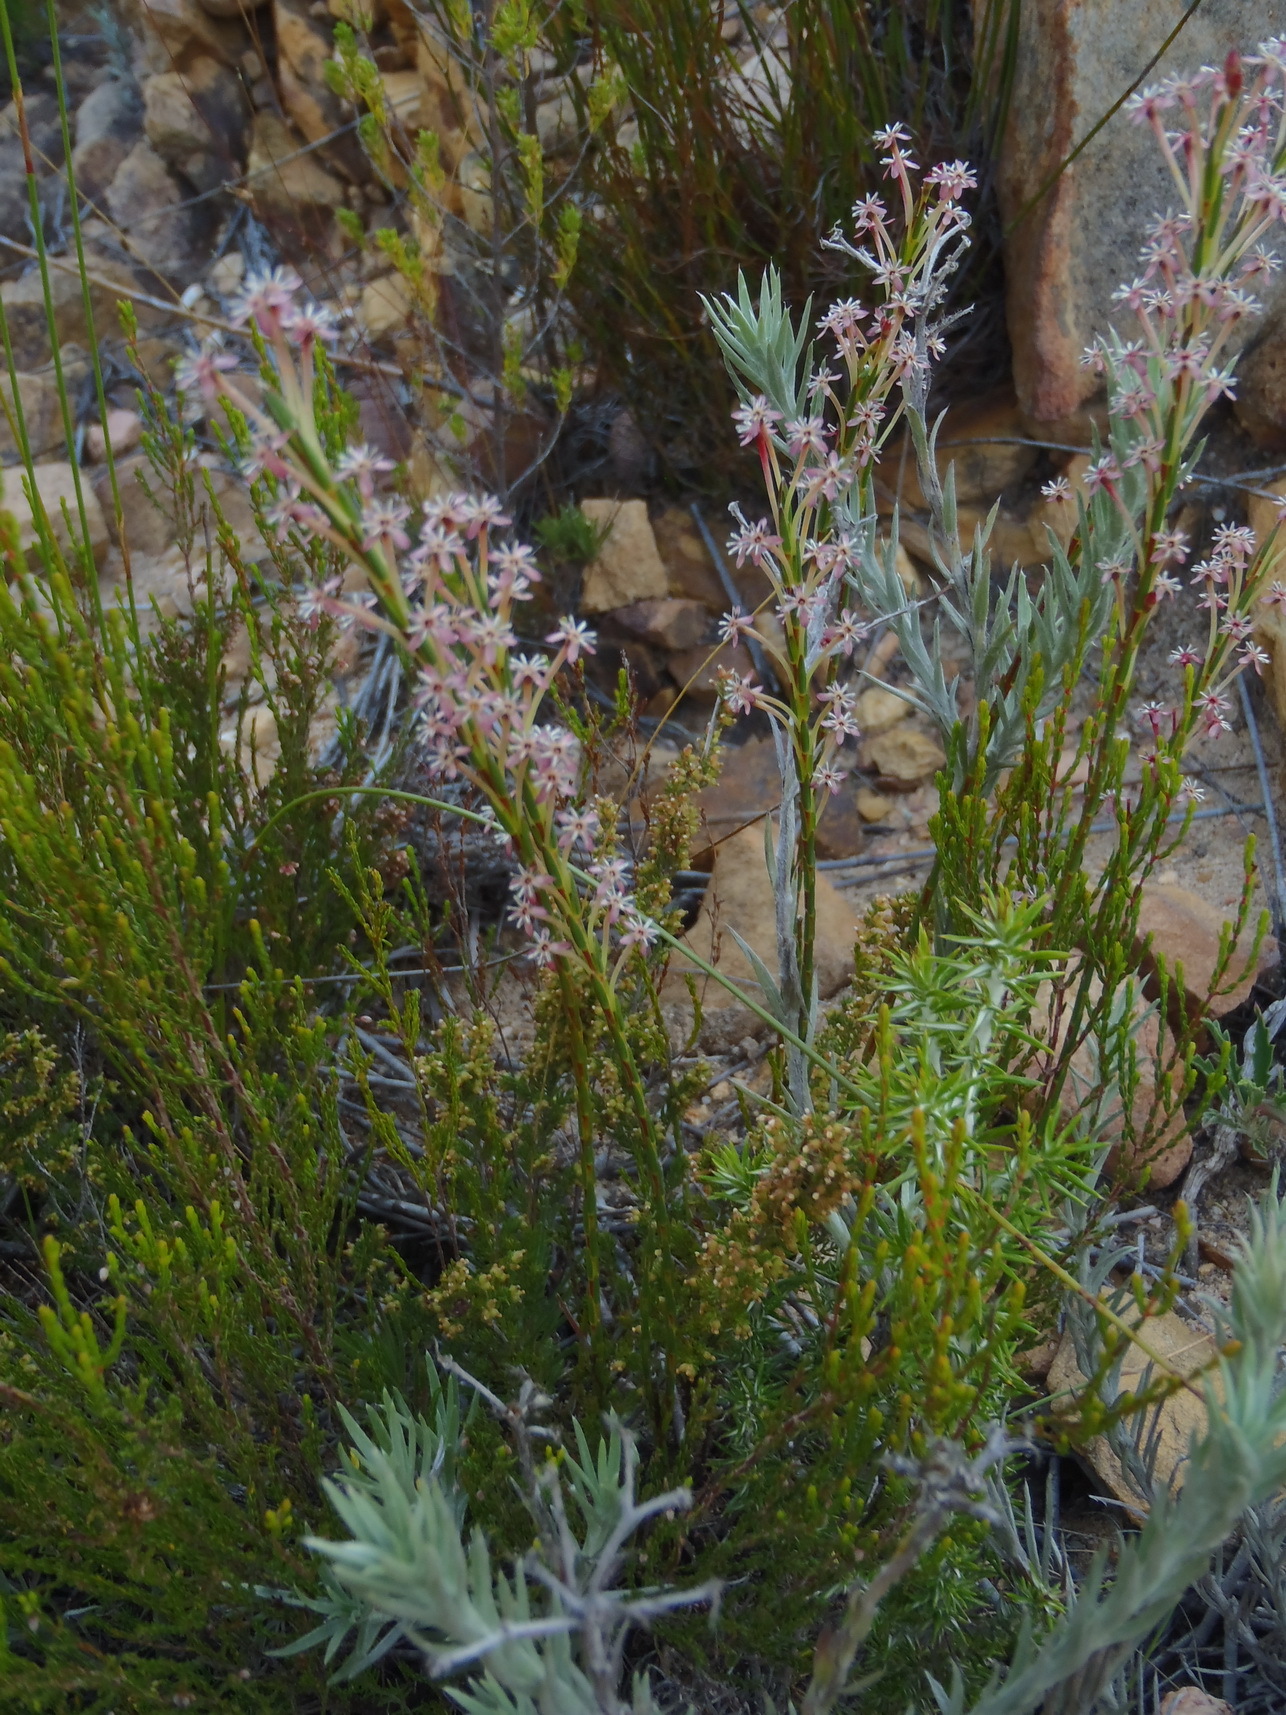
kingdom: Plantae
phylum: Tracheophyta
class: Magnoliopsida
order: Malvales
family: Thymelaeaceae
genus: Struthiola
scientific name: Struthiola macowanii
